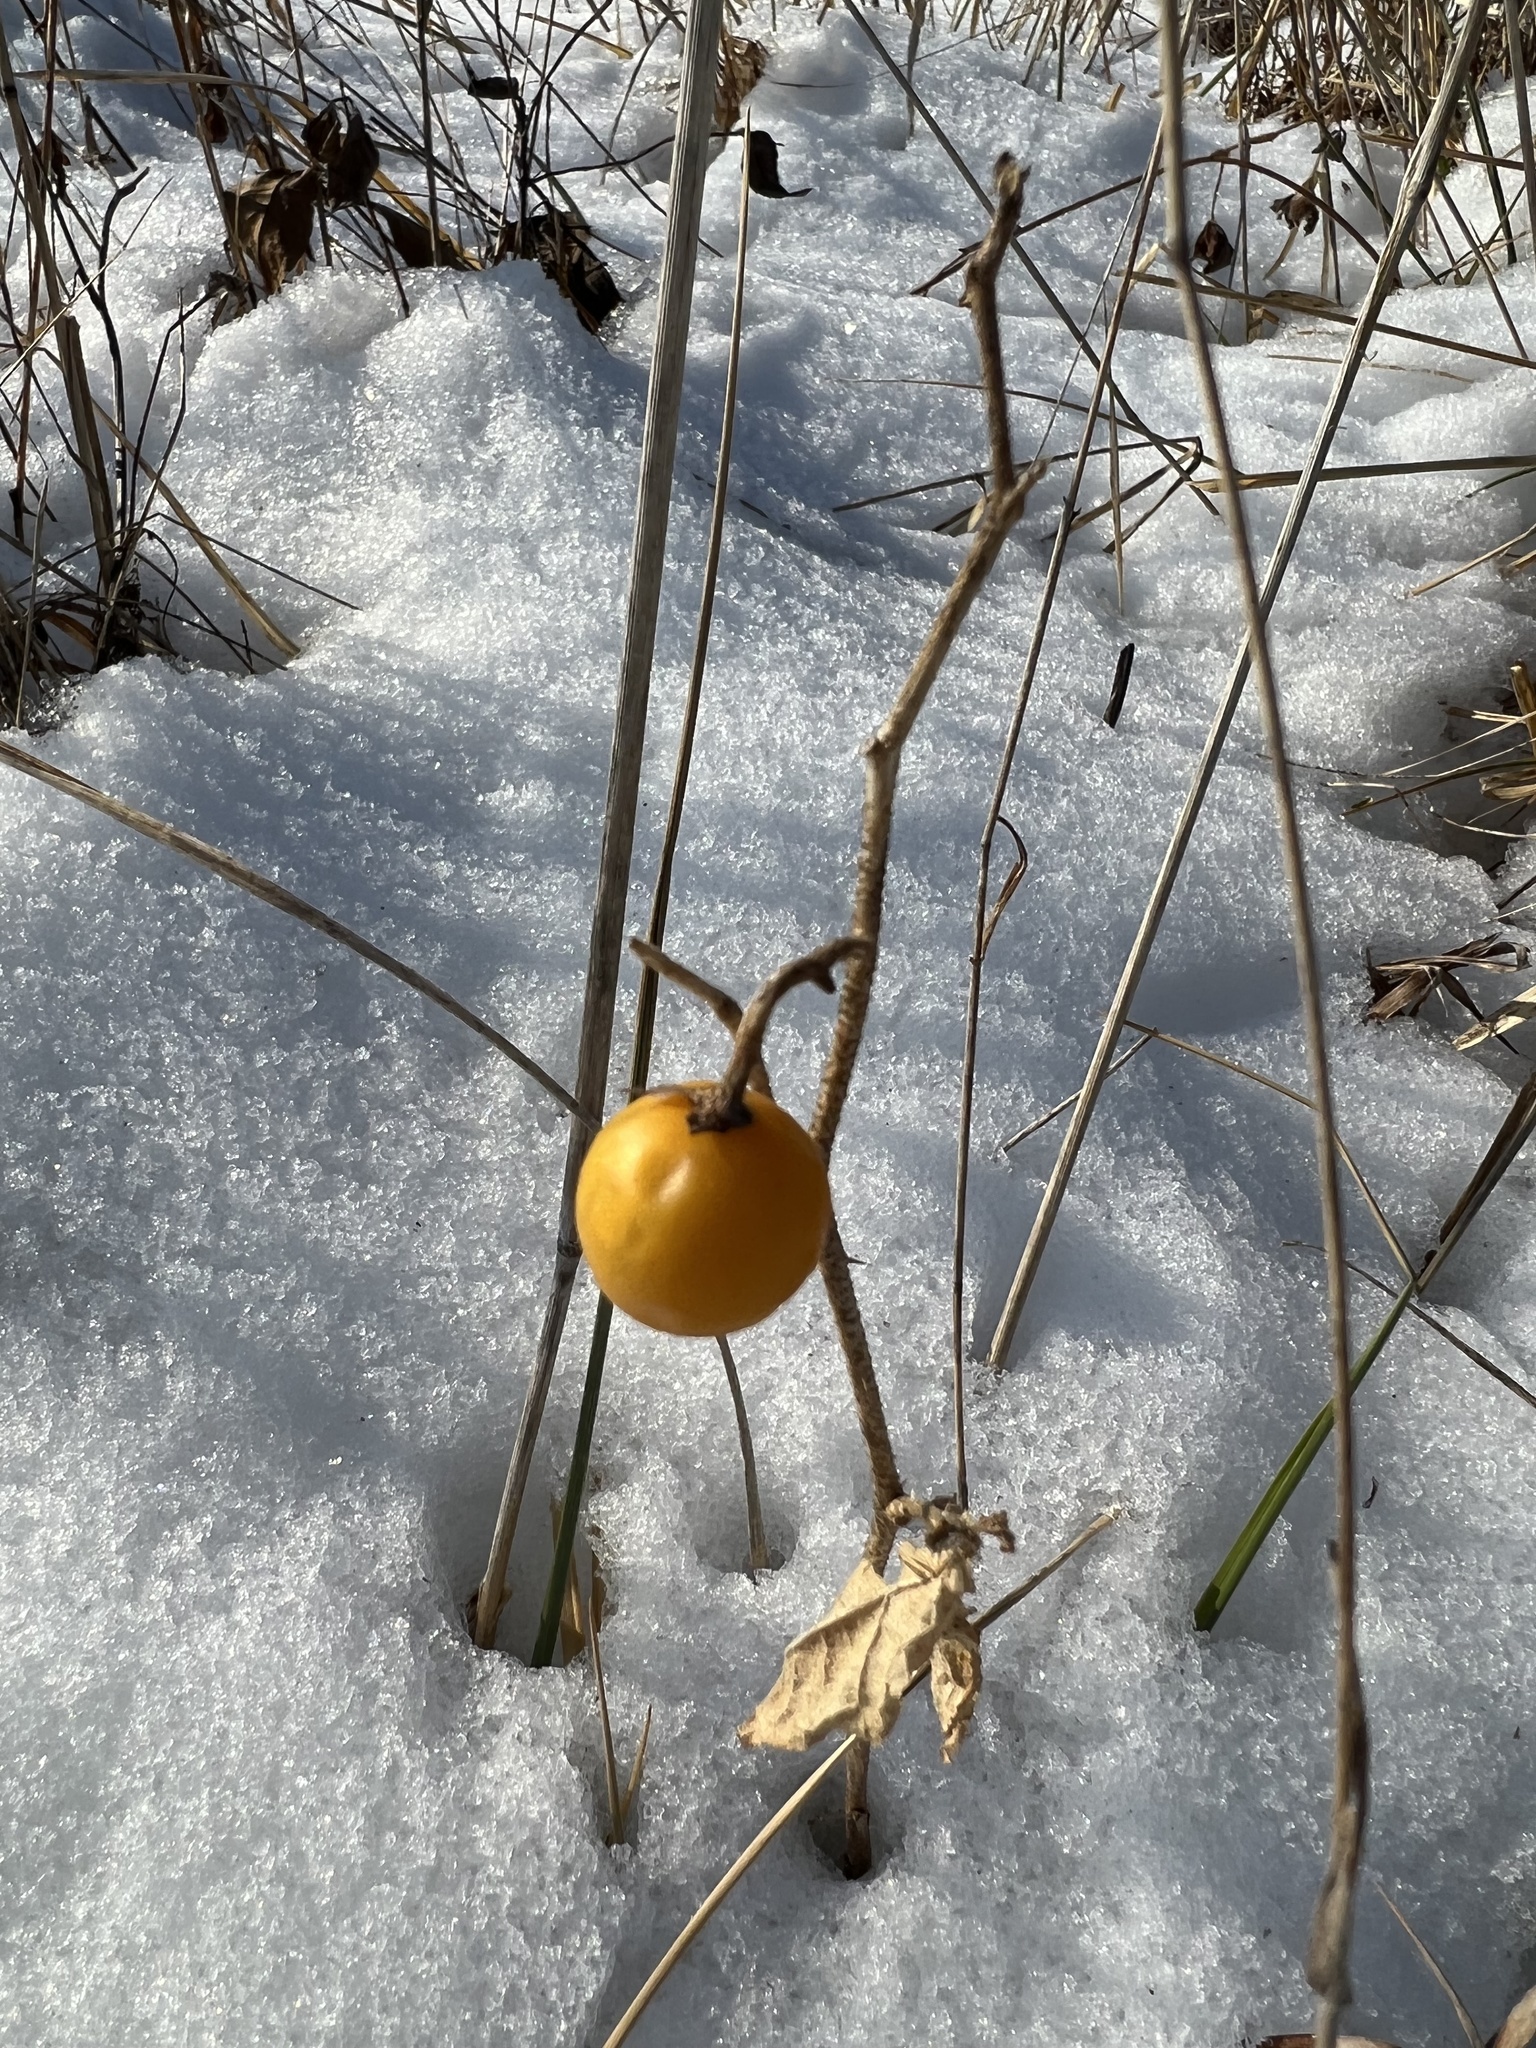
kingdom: Plantae
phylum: Tracheophyta
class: Magnoliopsida
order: Solanales
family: Solanaceae
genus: Solanum
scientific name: Solanum carolinense
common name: Horse-nettle
